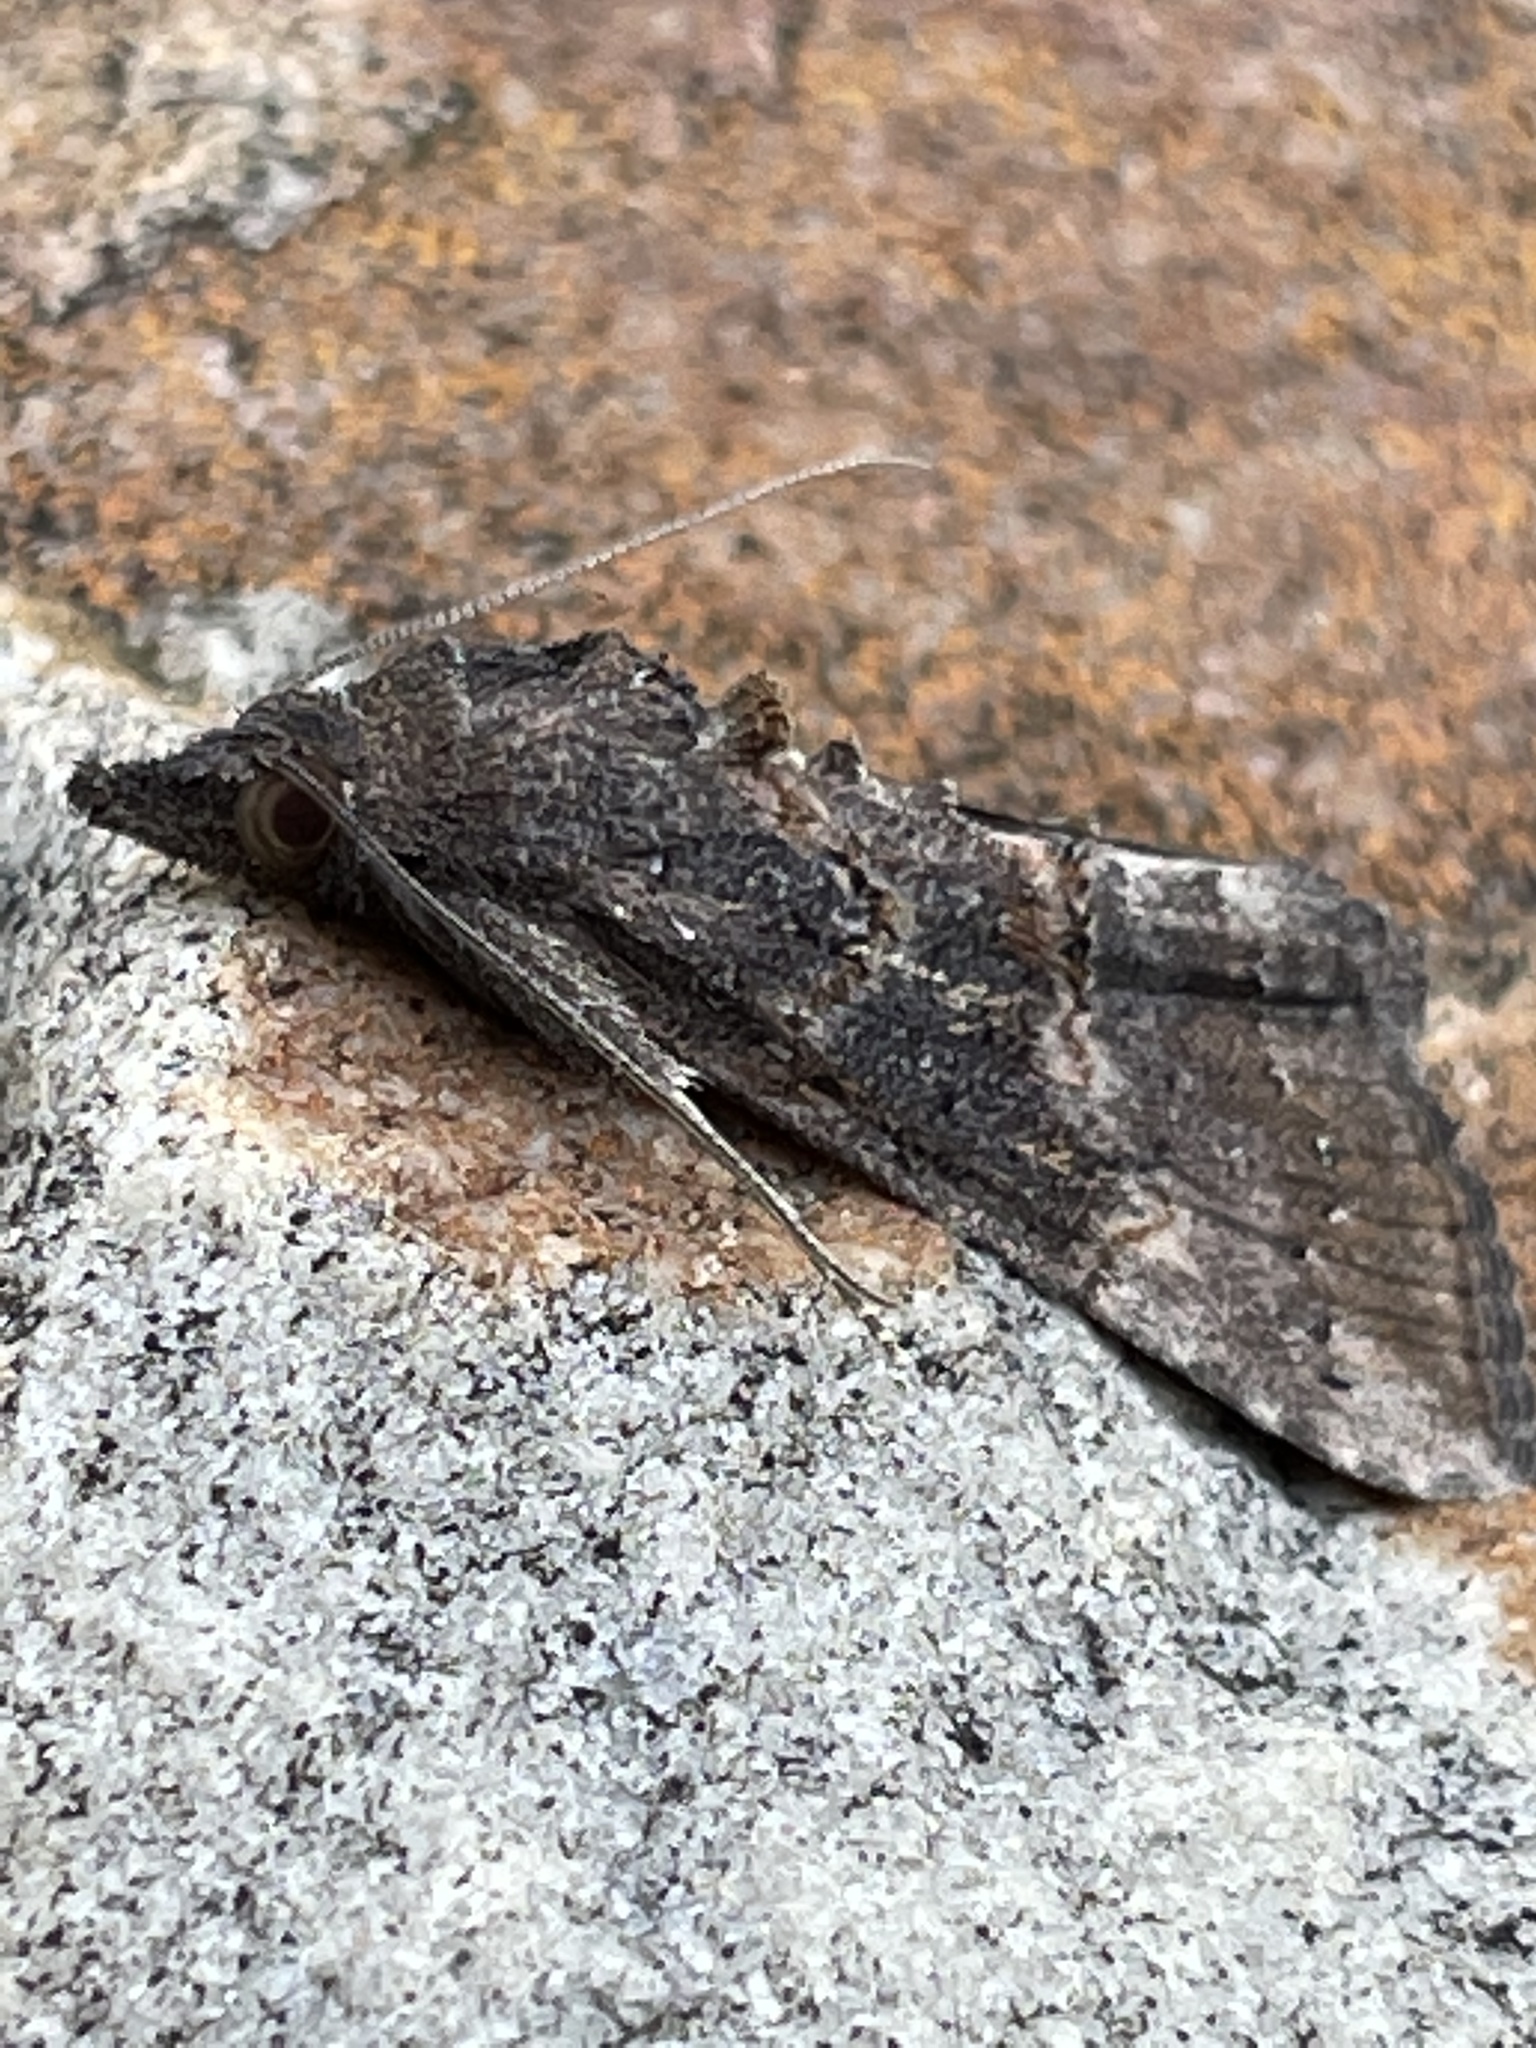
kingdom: Animalia
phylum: Arthropoda
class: Insecta
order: Lepidoptera
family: Erebidae
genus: Hypena
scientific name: Hypena scabra
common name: Green cloverworm
